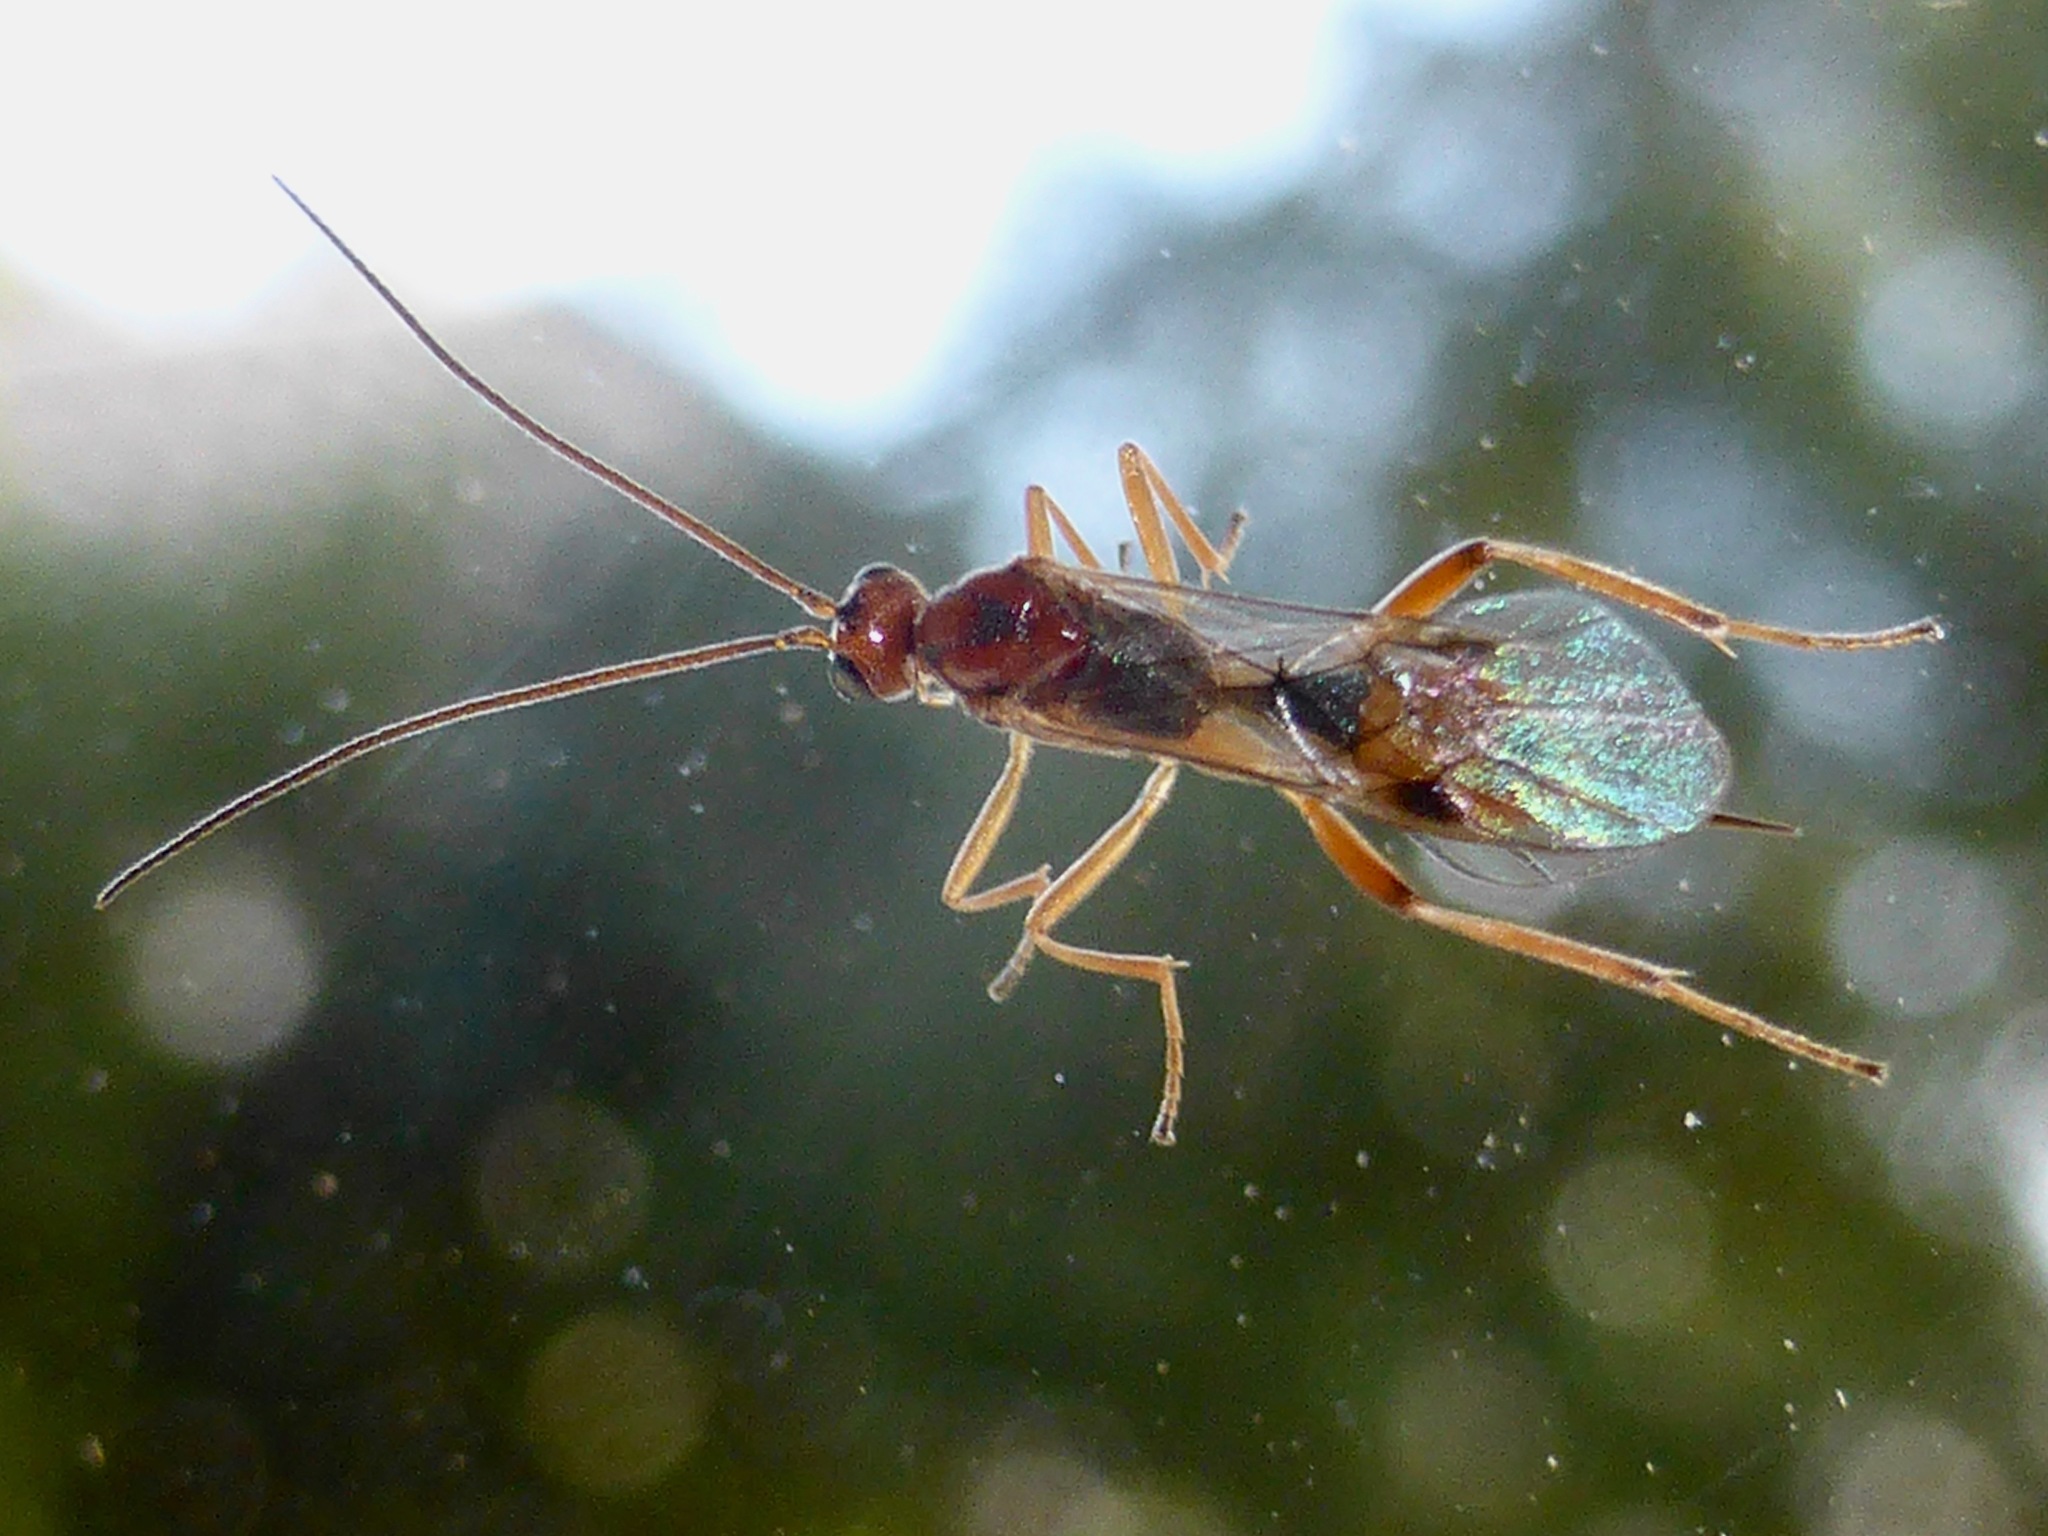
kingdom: Animalia
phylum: Arthropoda
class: Insecta
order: Hymenoptera
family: Braconidae
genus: Meteorus
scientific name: Meteorus pulchricornis
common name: Braconid wasp
